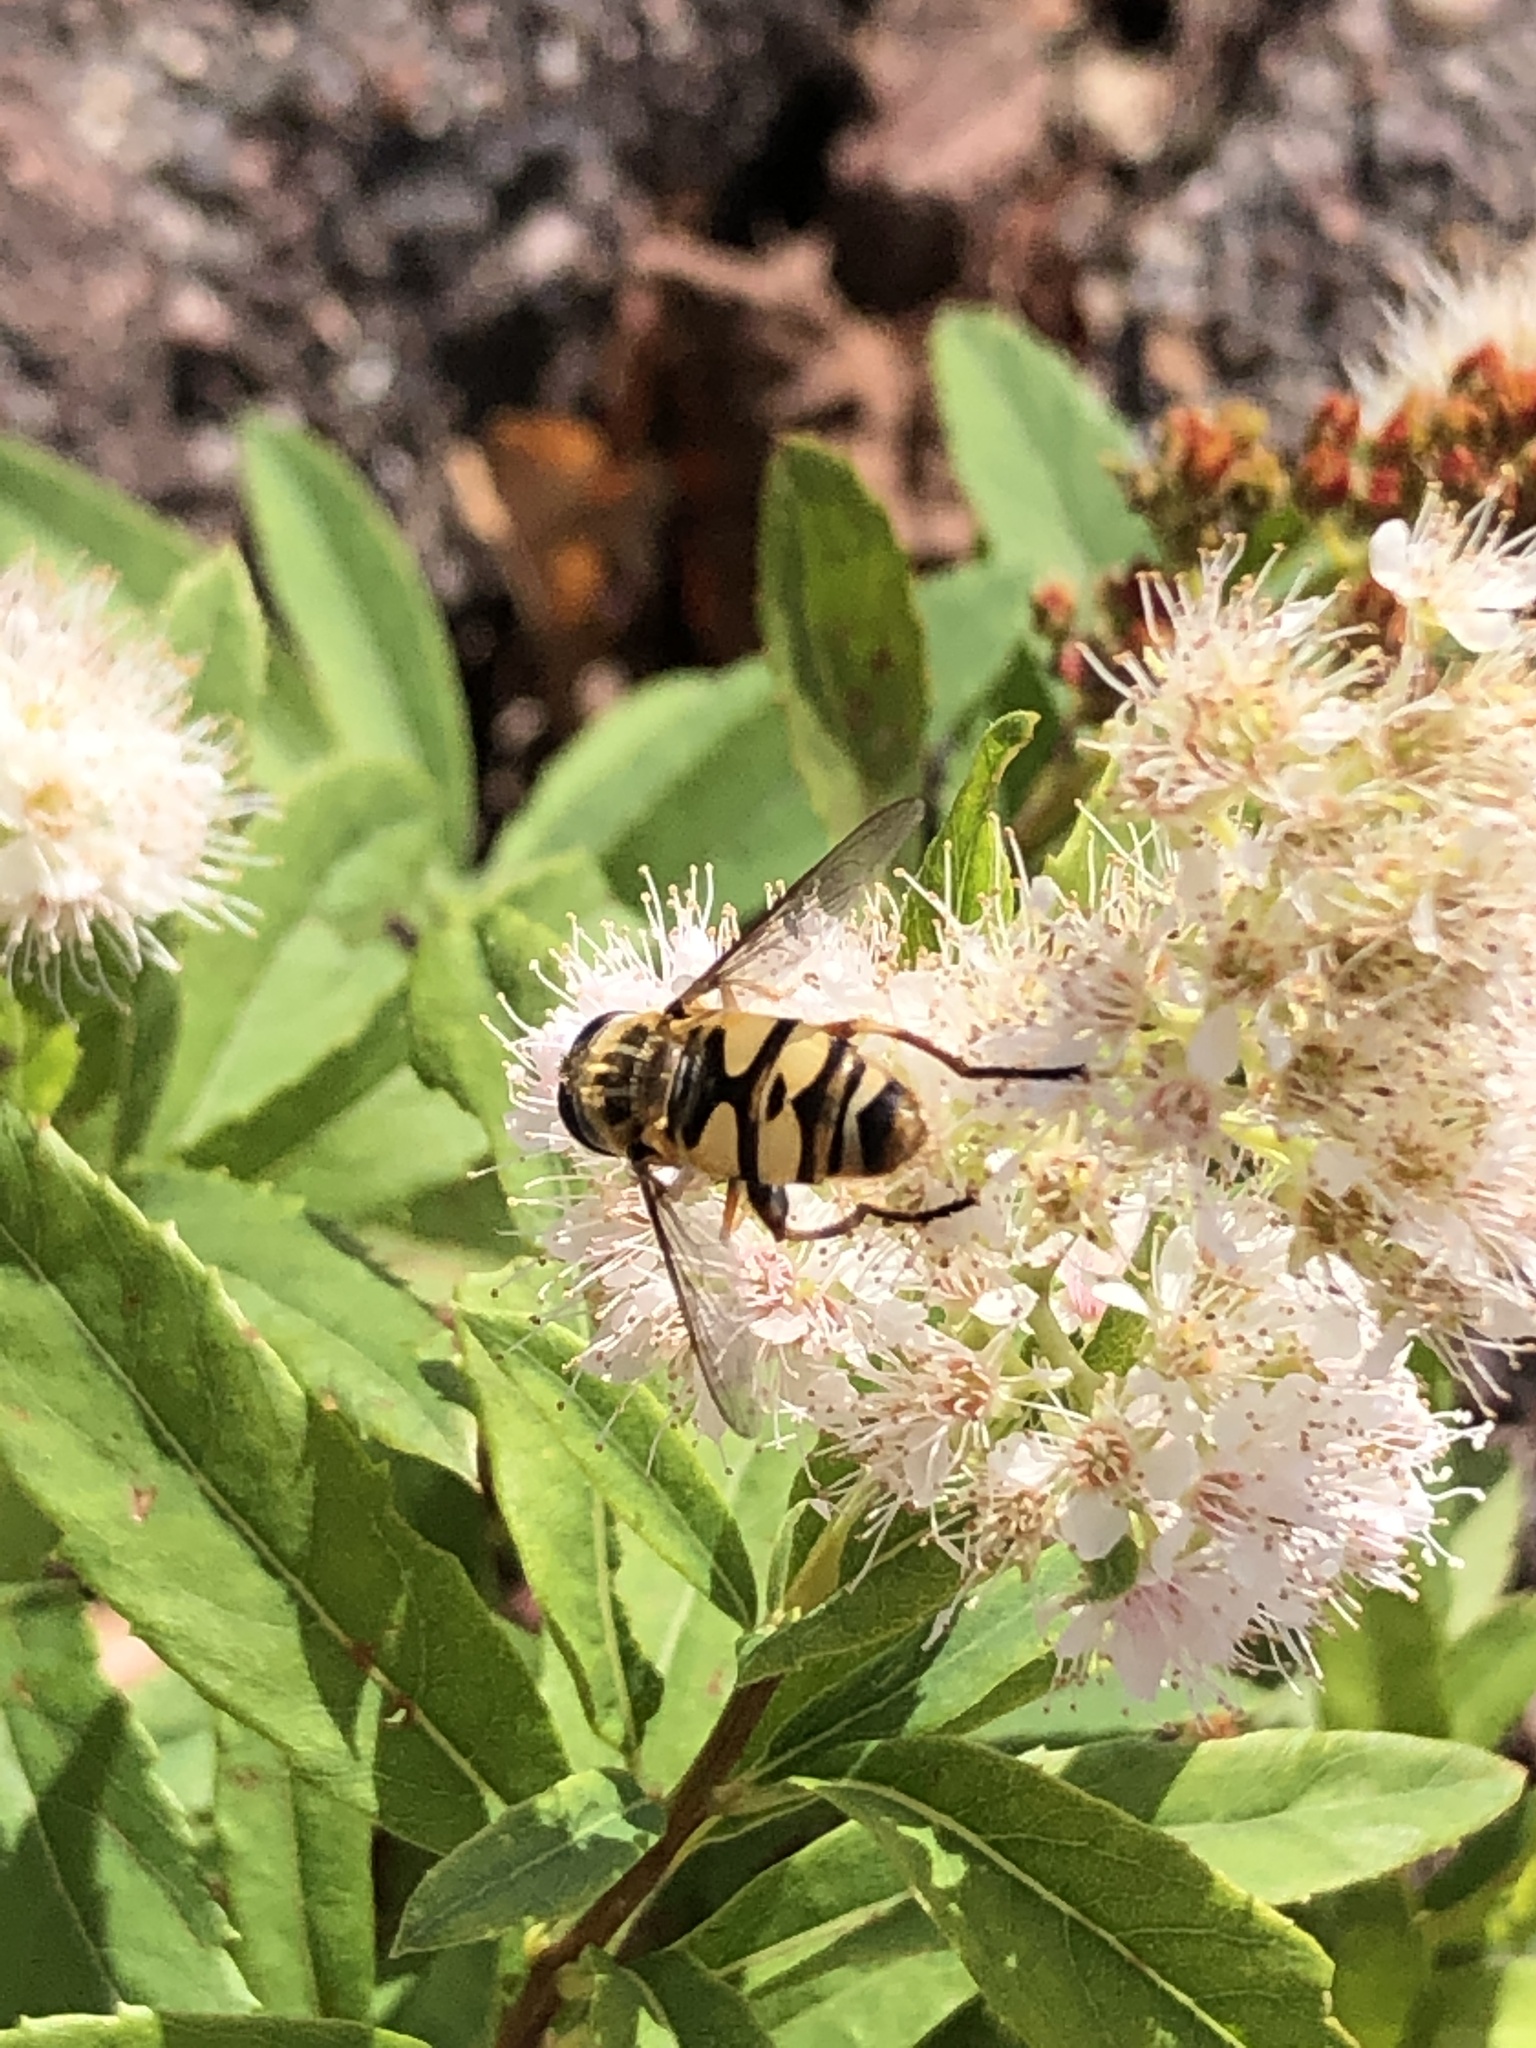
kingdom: Animalia
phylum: Arthropoda
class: Insecta
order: Diptera
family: Syrphidae
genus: Helophilus
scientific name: Helophilus fasciatus
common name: Narrow-headed marsh fly
